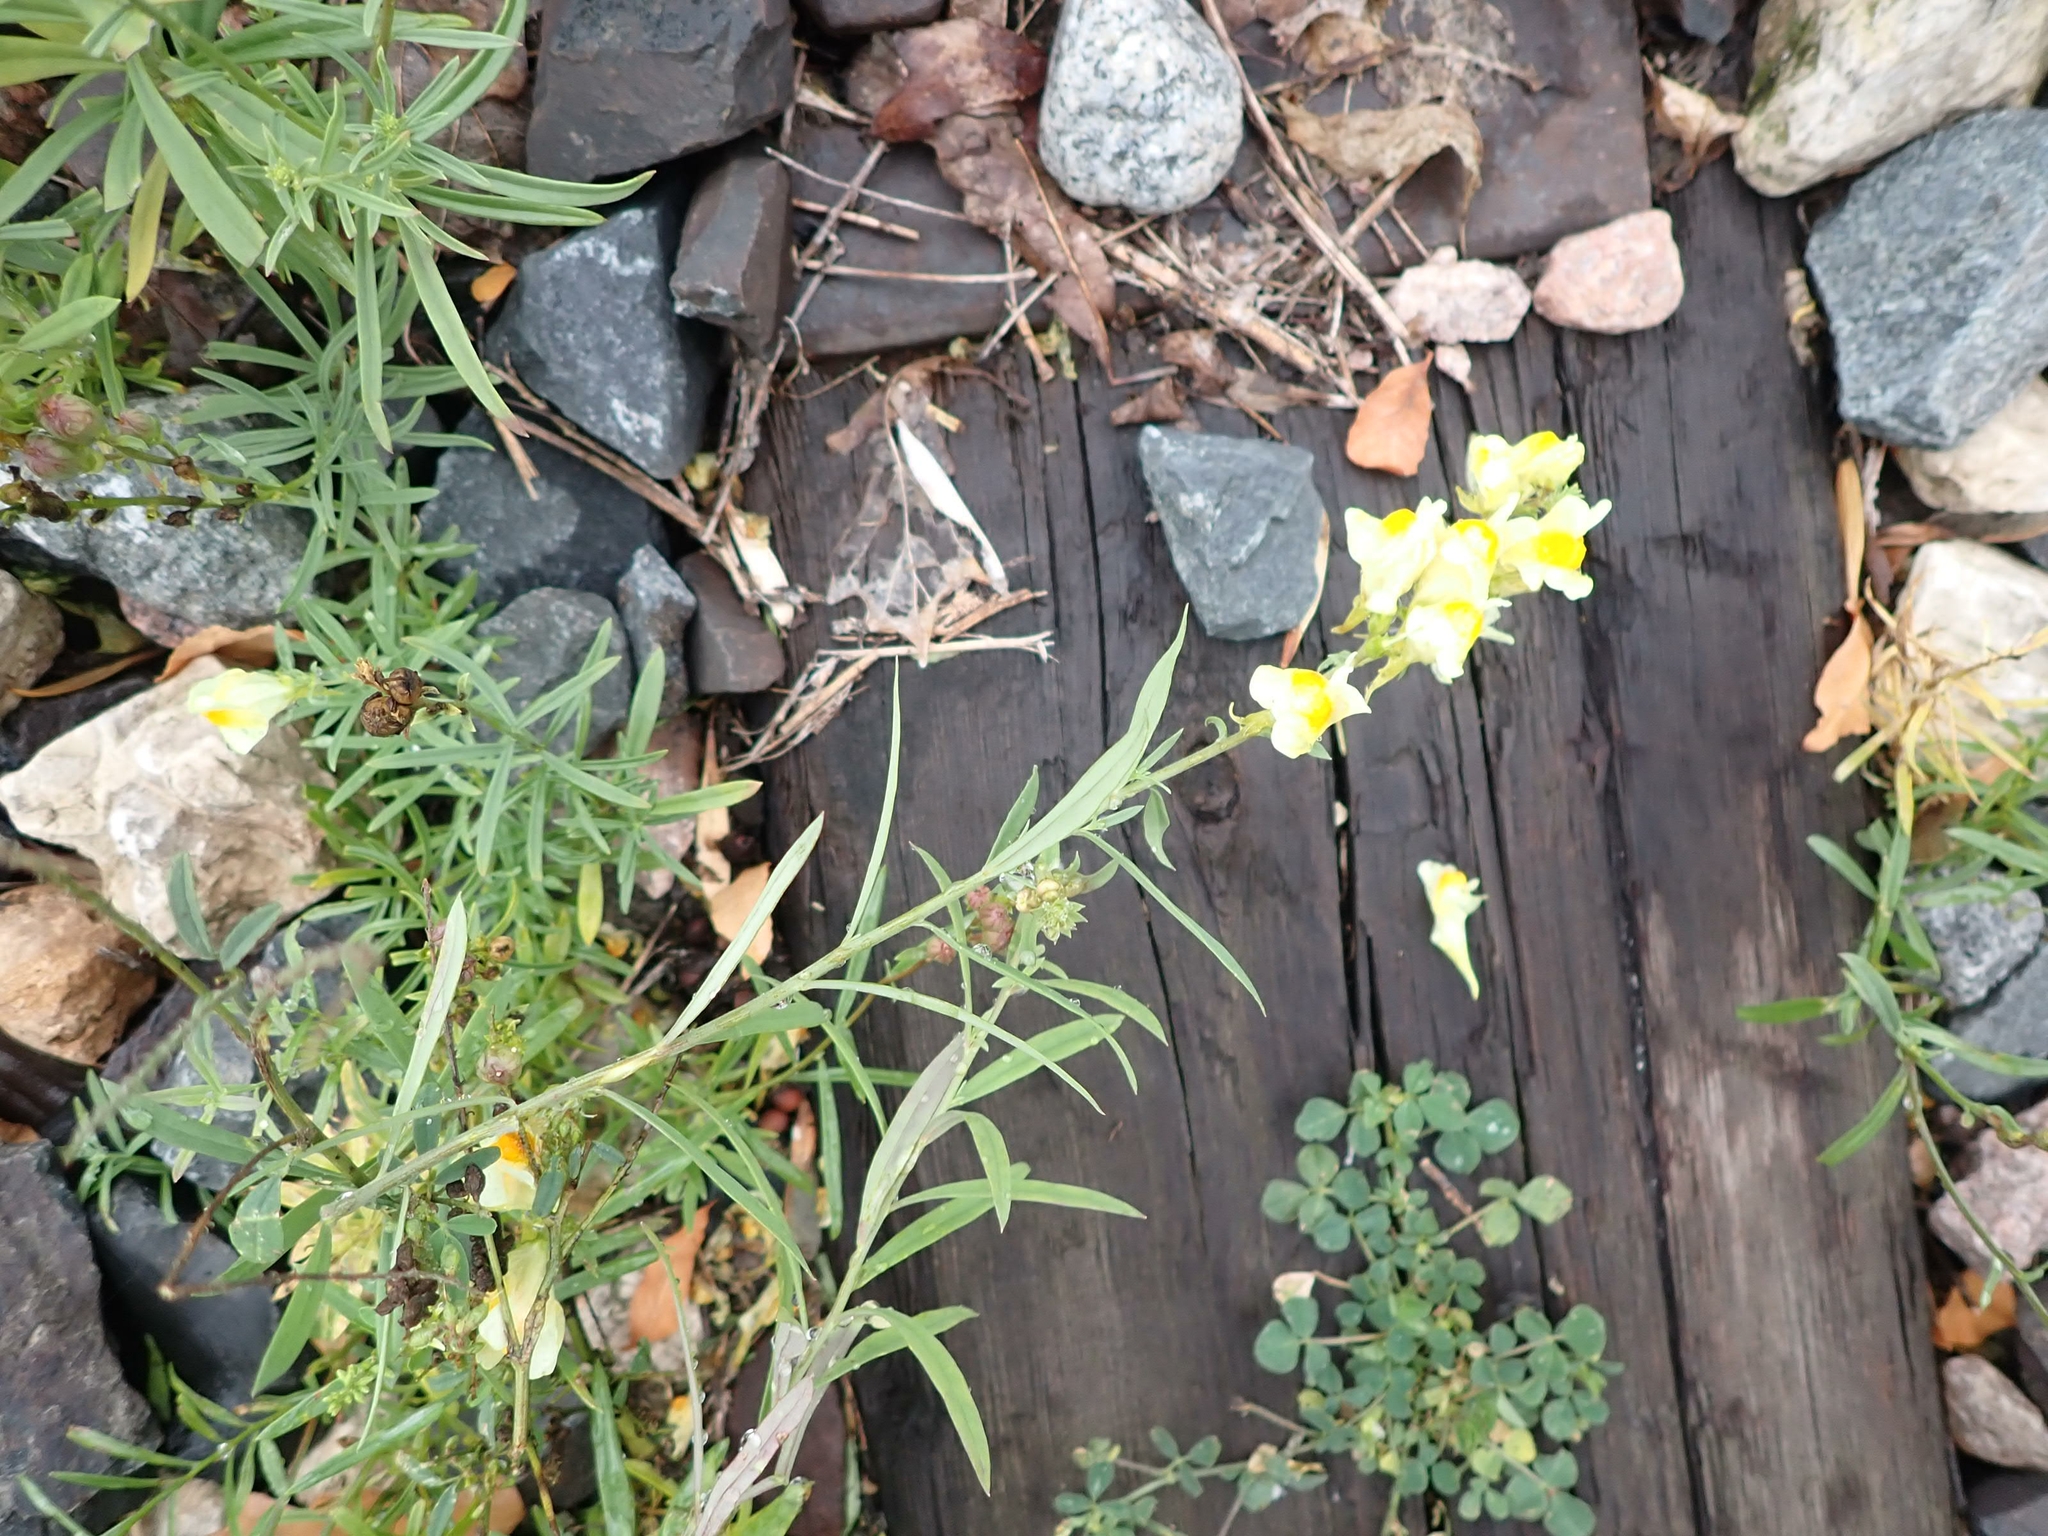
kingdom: Plantae
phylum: Tracheophyta
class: Magnoliopsida
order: Lamiales
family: Plantaginaceae
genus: Linaria
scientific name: Linaria vulgaris
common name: Butter and eggs
